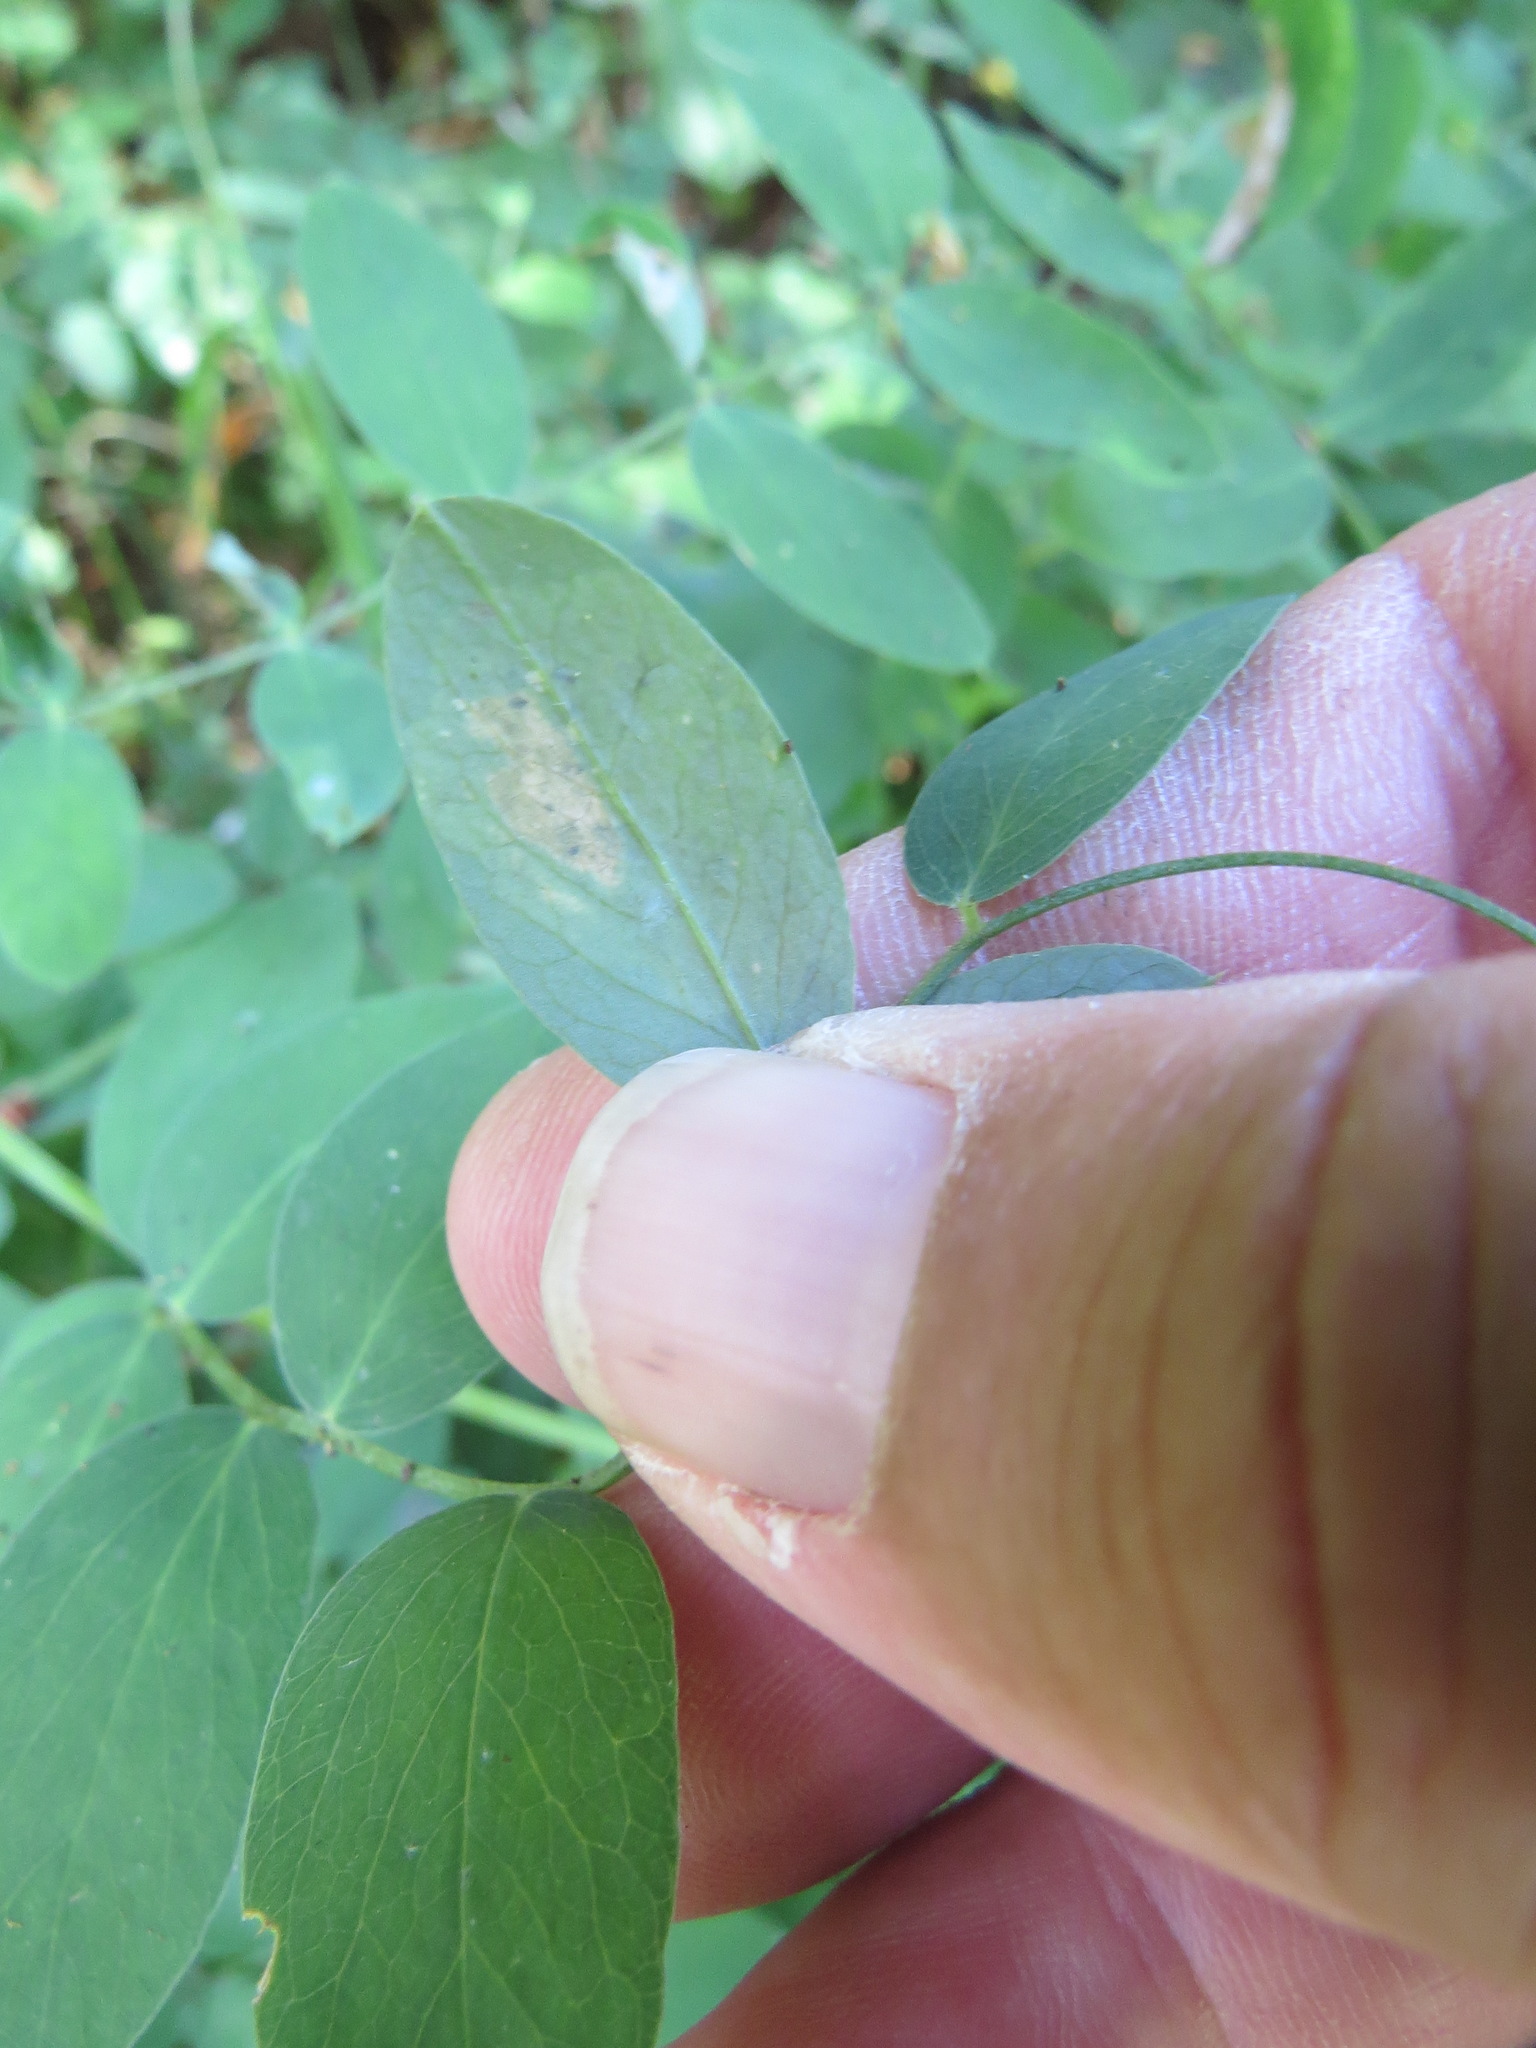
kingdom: Plantae
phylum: Tracheophyta
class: Magnoliopsida
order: Fabales
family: Fabaceae
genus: Lathyrus
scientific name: Lathyrus vestitus
